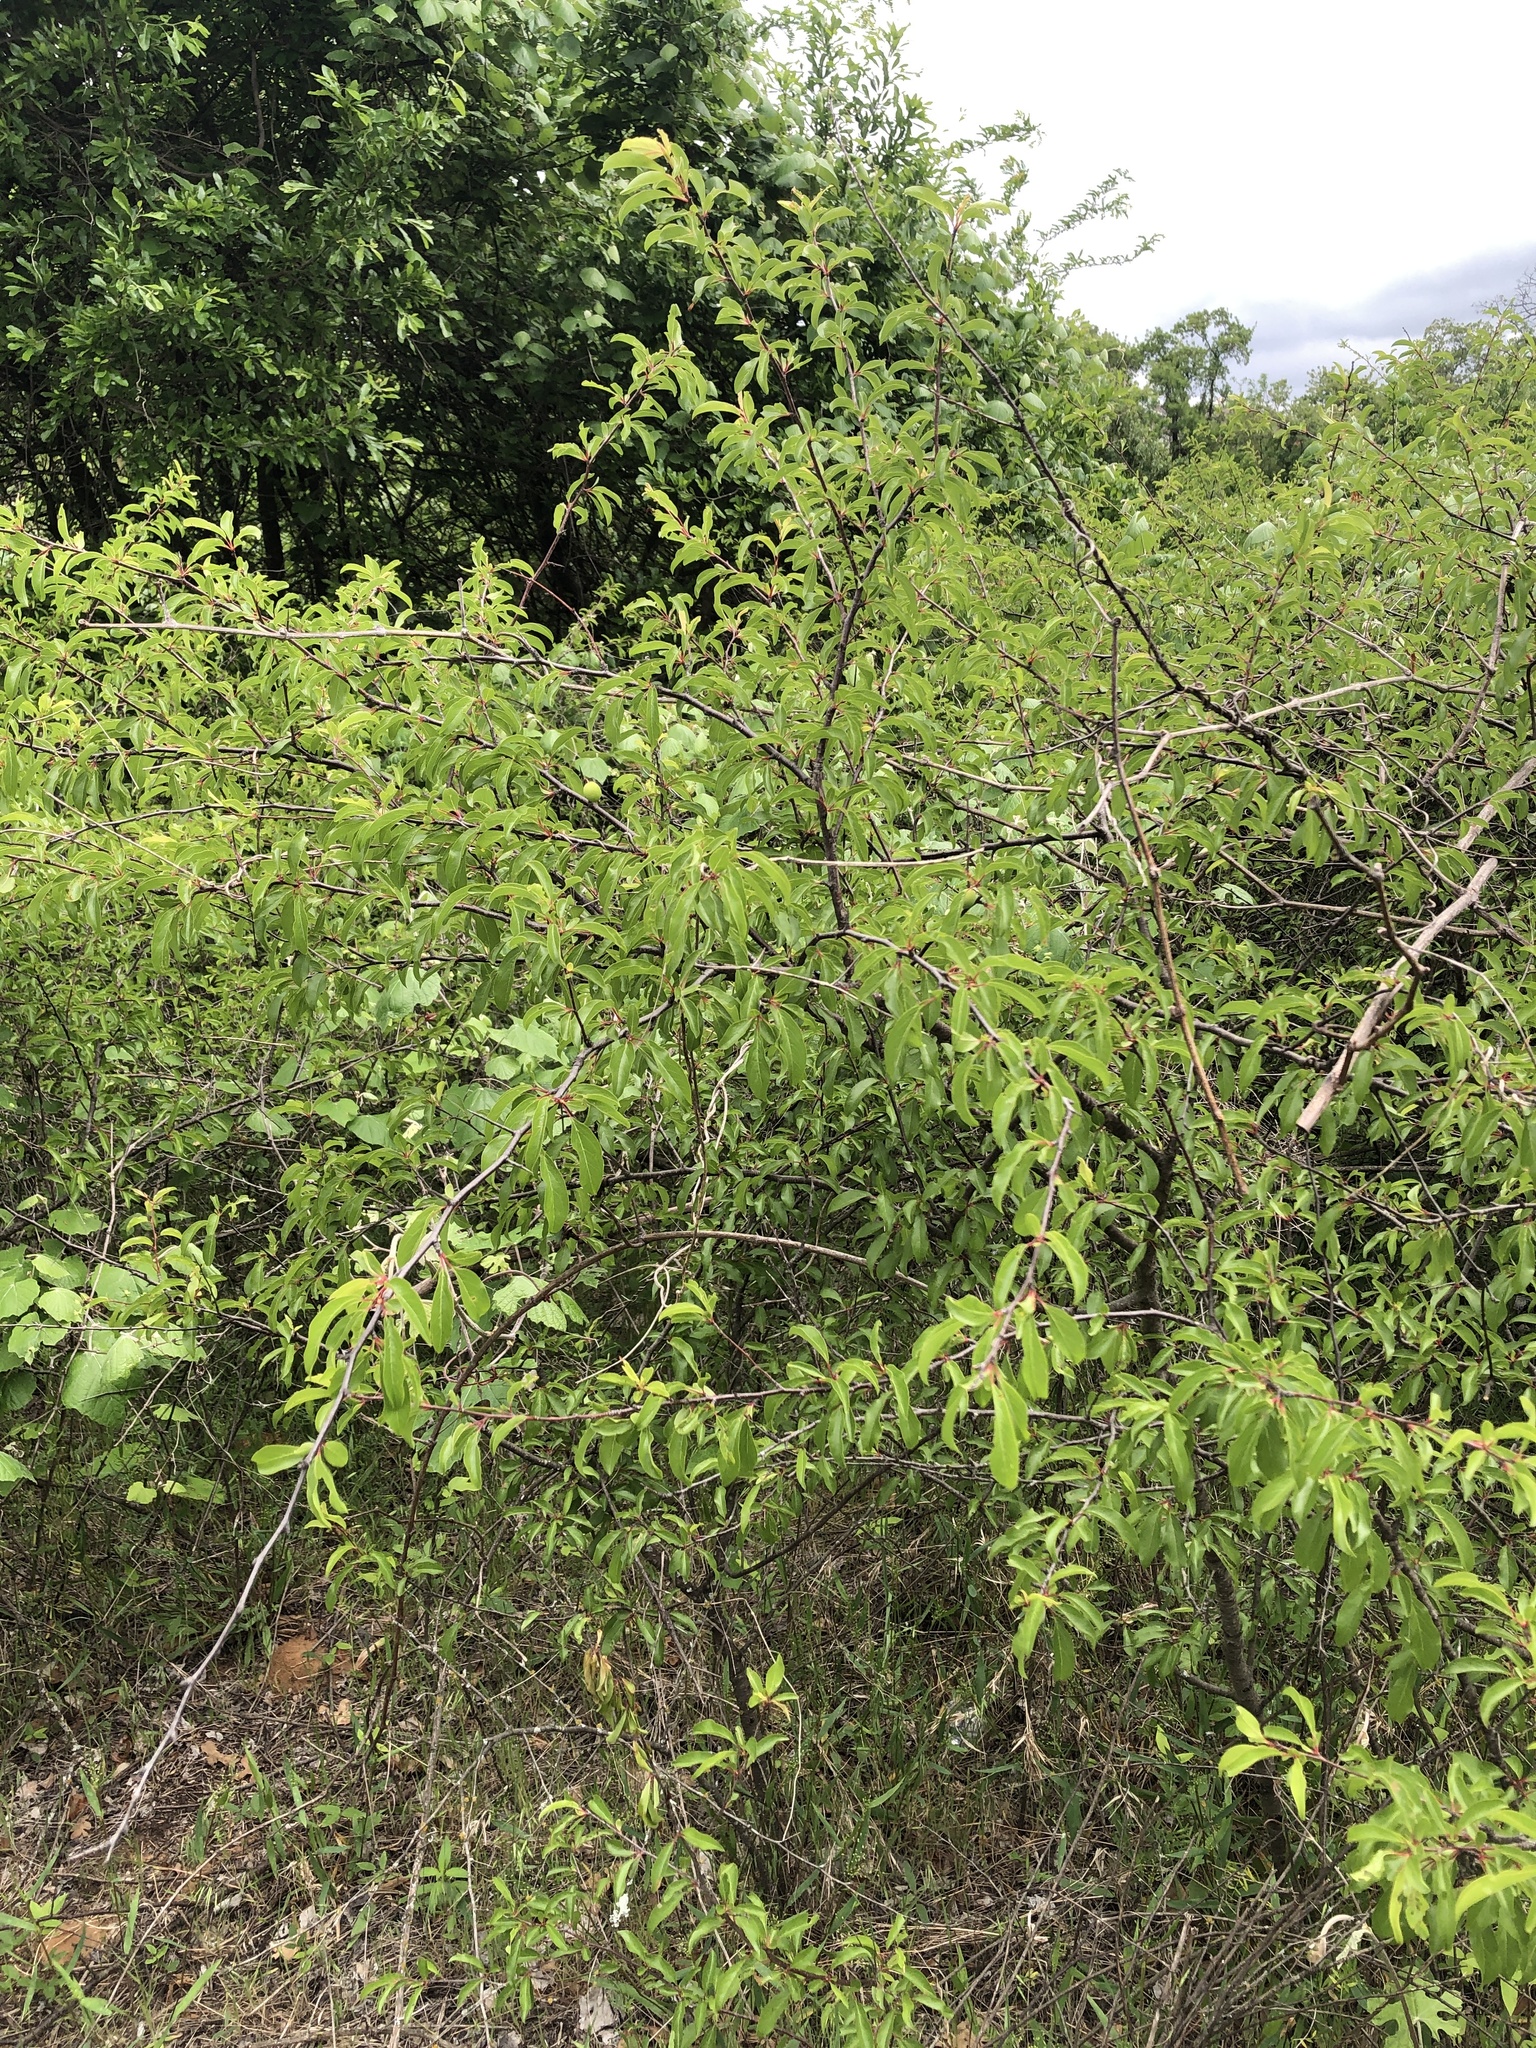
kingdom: Plantae
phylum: Tracheophyta
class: Magnoliopsida
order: Rosales
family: Rosaceae
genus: Prunus
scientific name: Prunus angustifolia
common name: Cherokee plum
